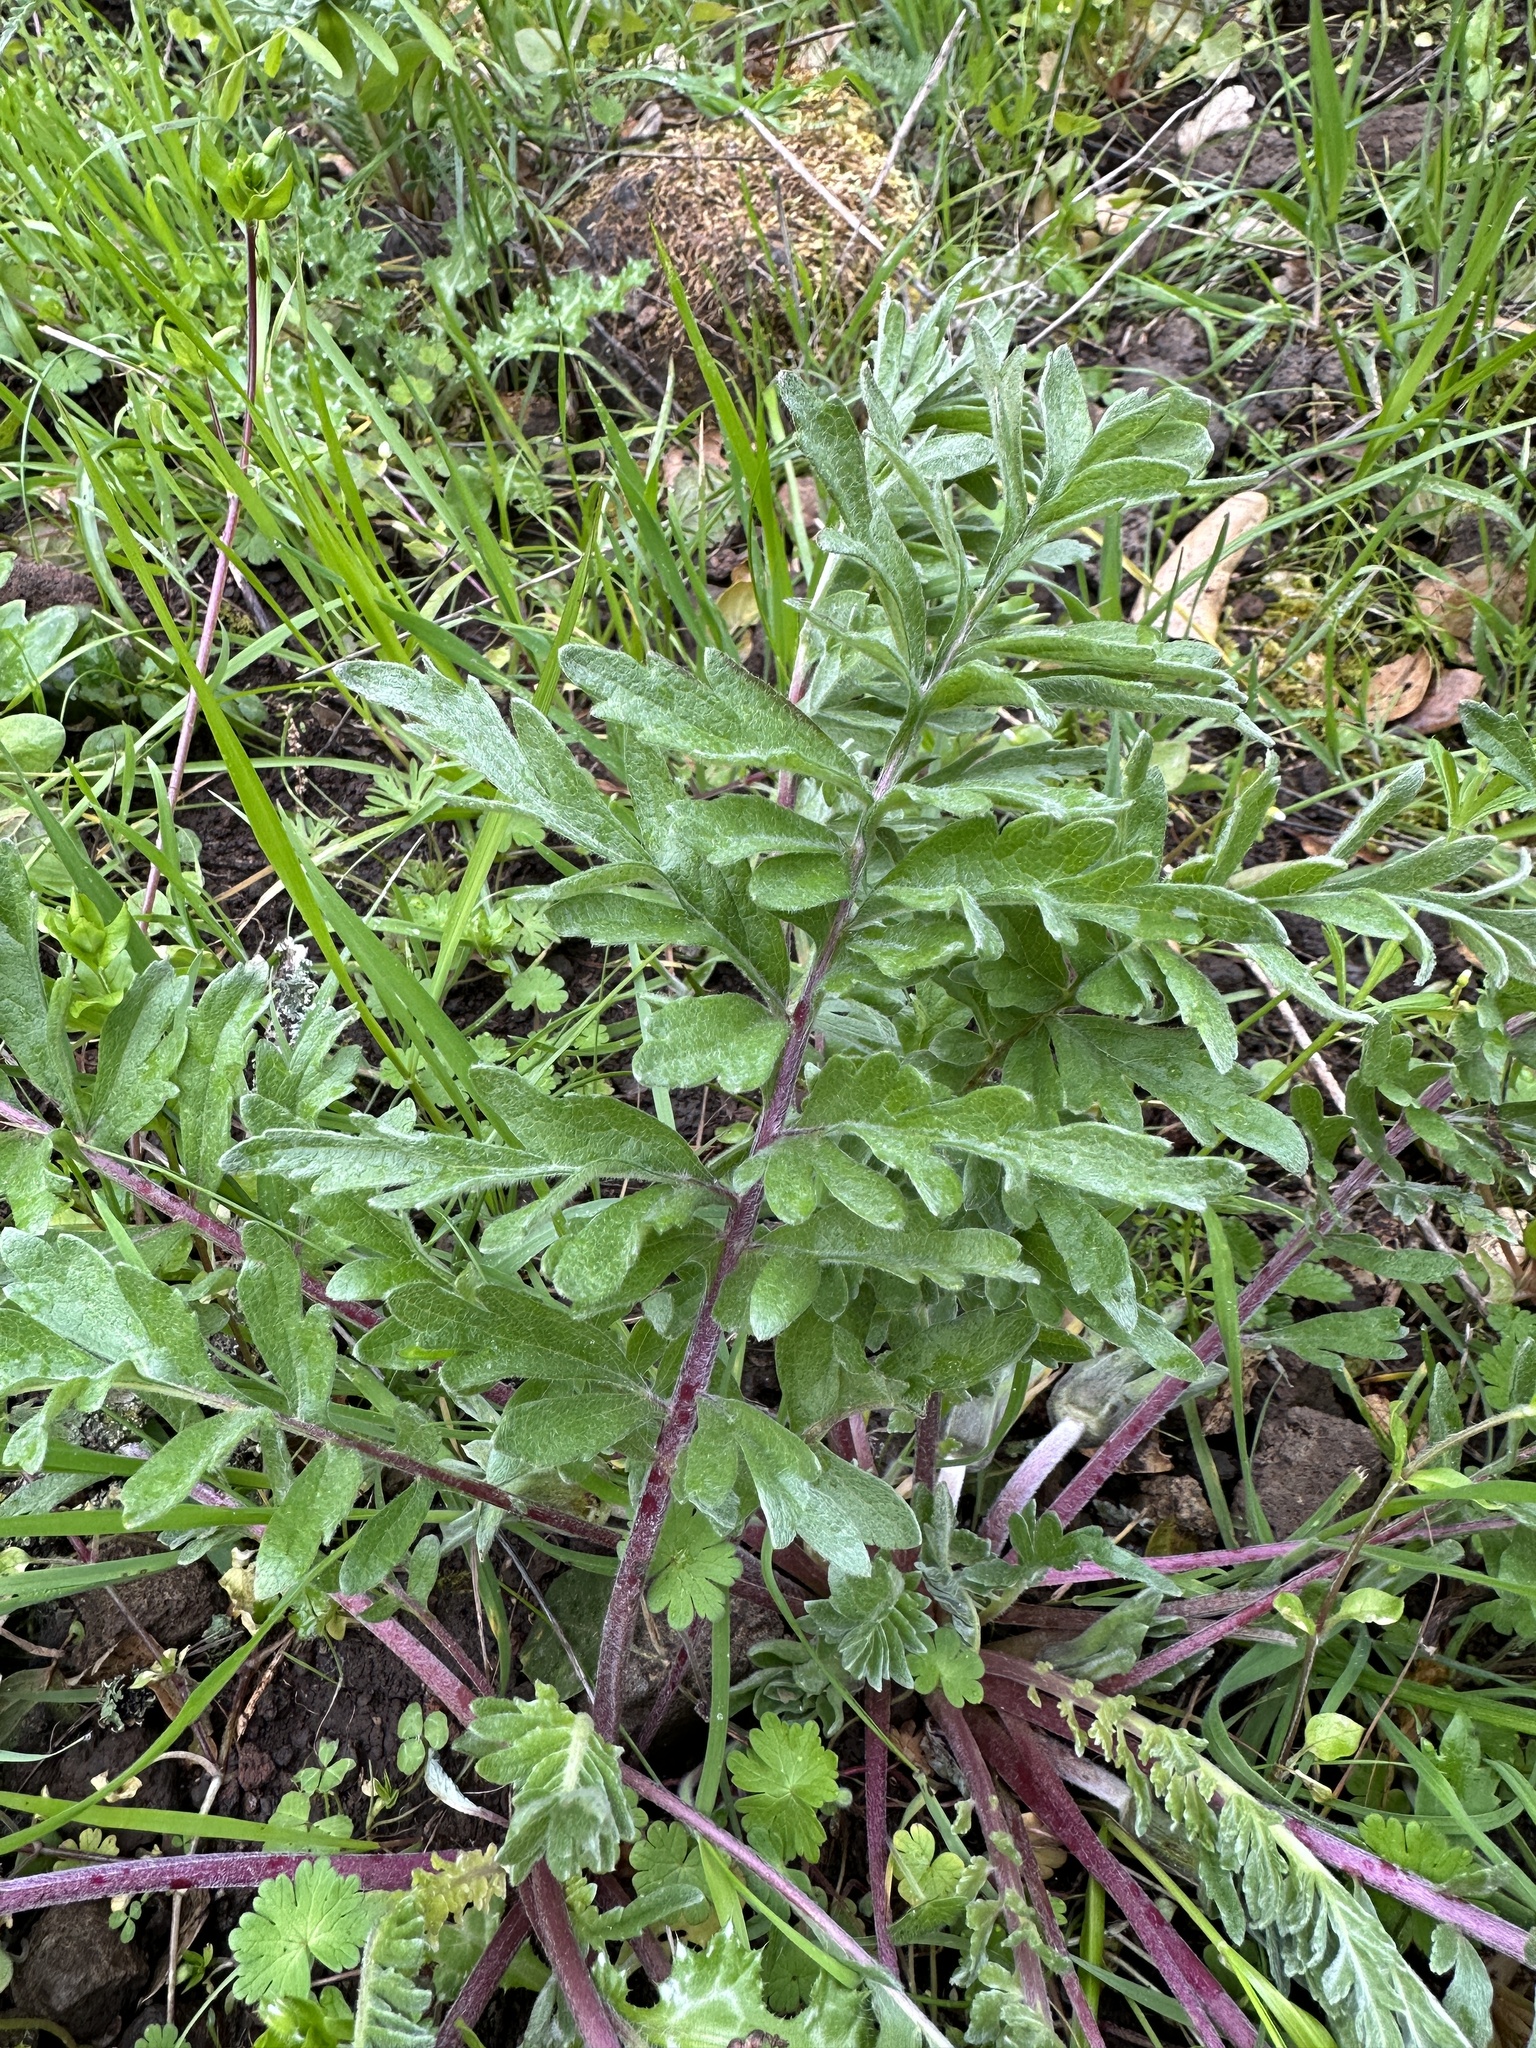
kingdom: Plantae
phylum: Tracheophyta
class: Magnoliopsida
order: Asterales
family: Asteraceae
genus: Balsamorhiza
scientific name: Balsamorhiza macrolepis
